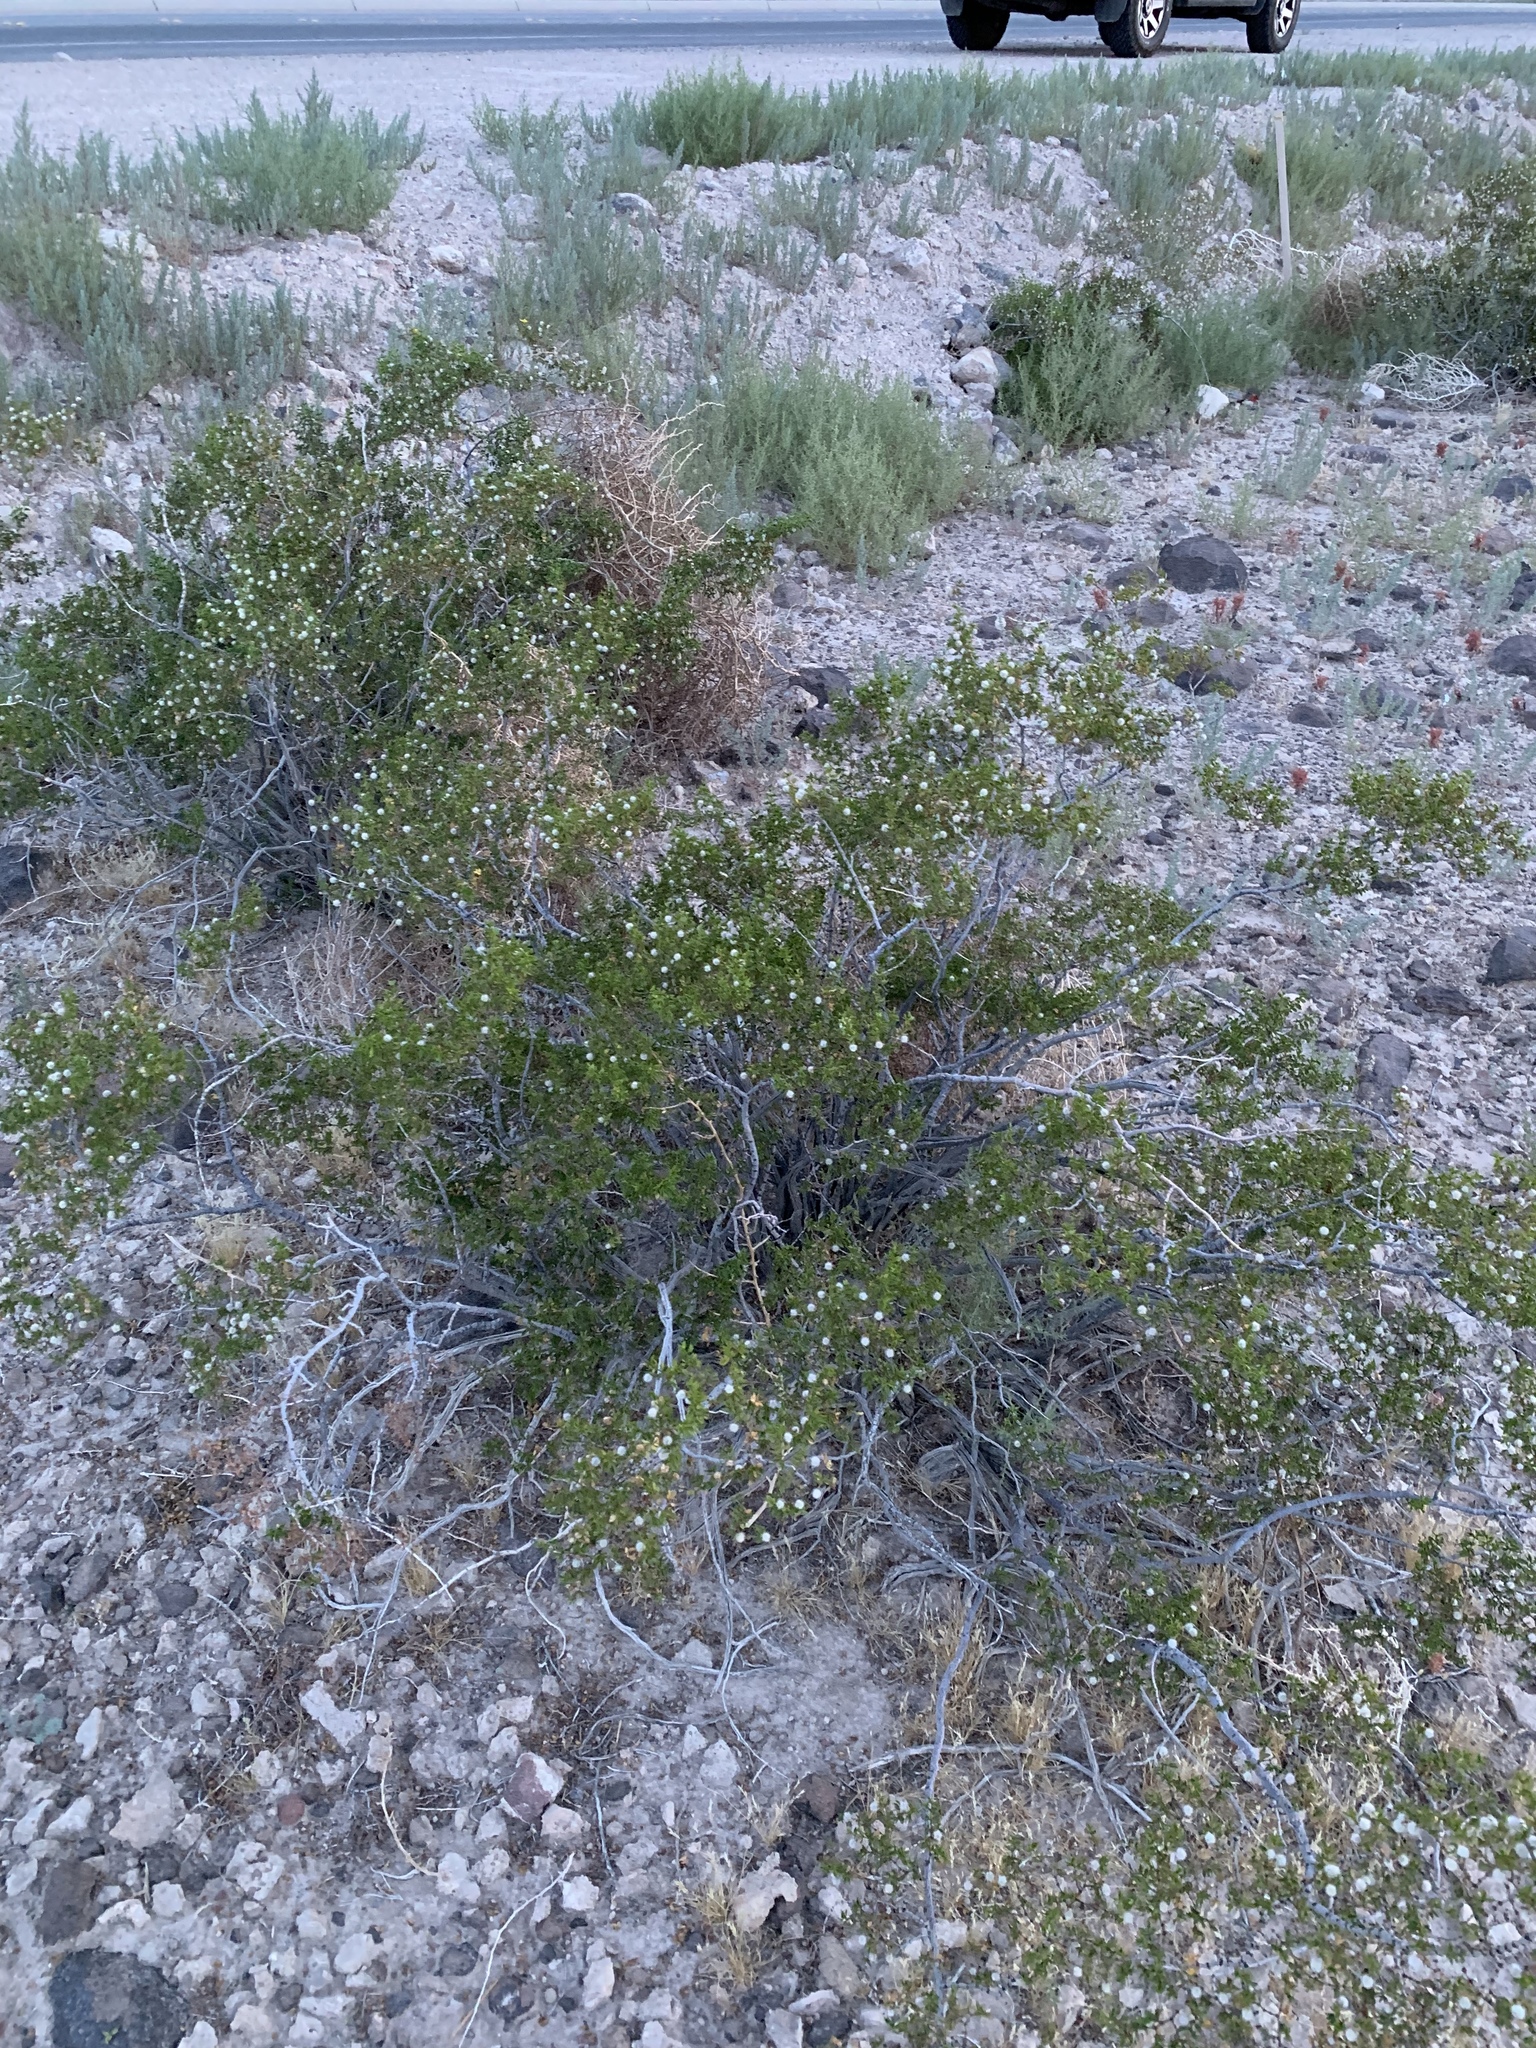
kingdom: Plantae
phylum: Tracheophyta
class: Magnoliopsida
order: Zygophyllales
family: Zygophyllaceae
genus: Larrea
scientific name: Larrea tridentata
